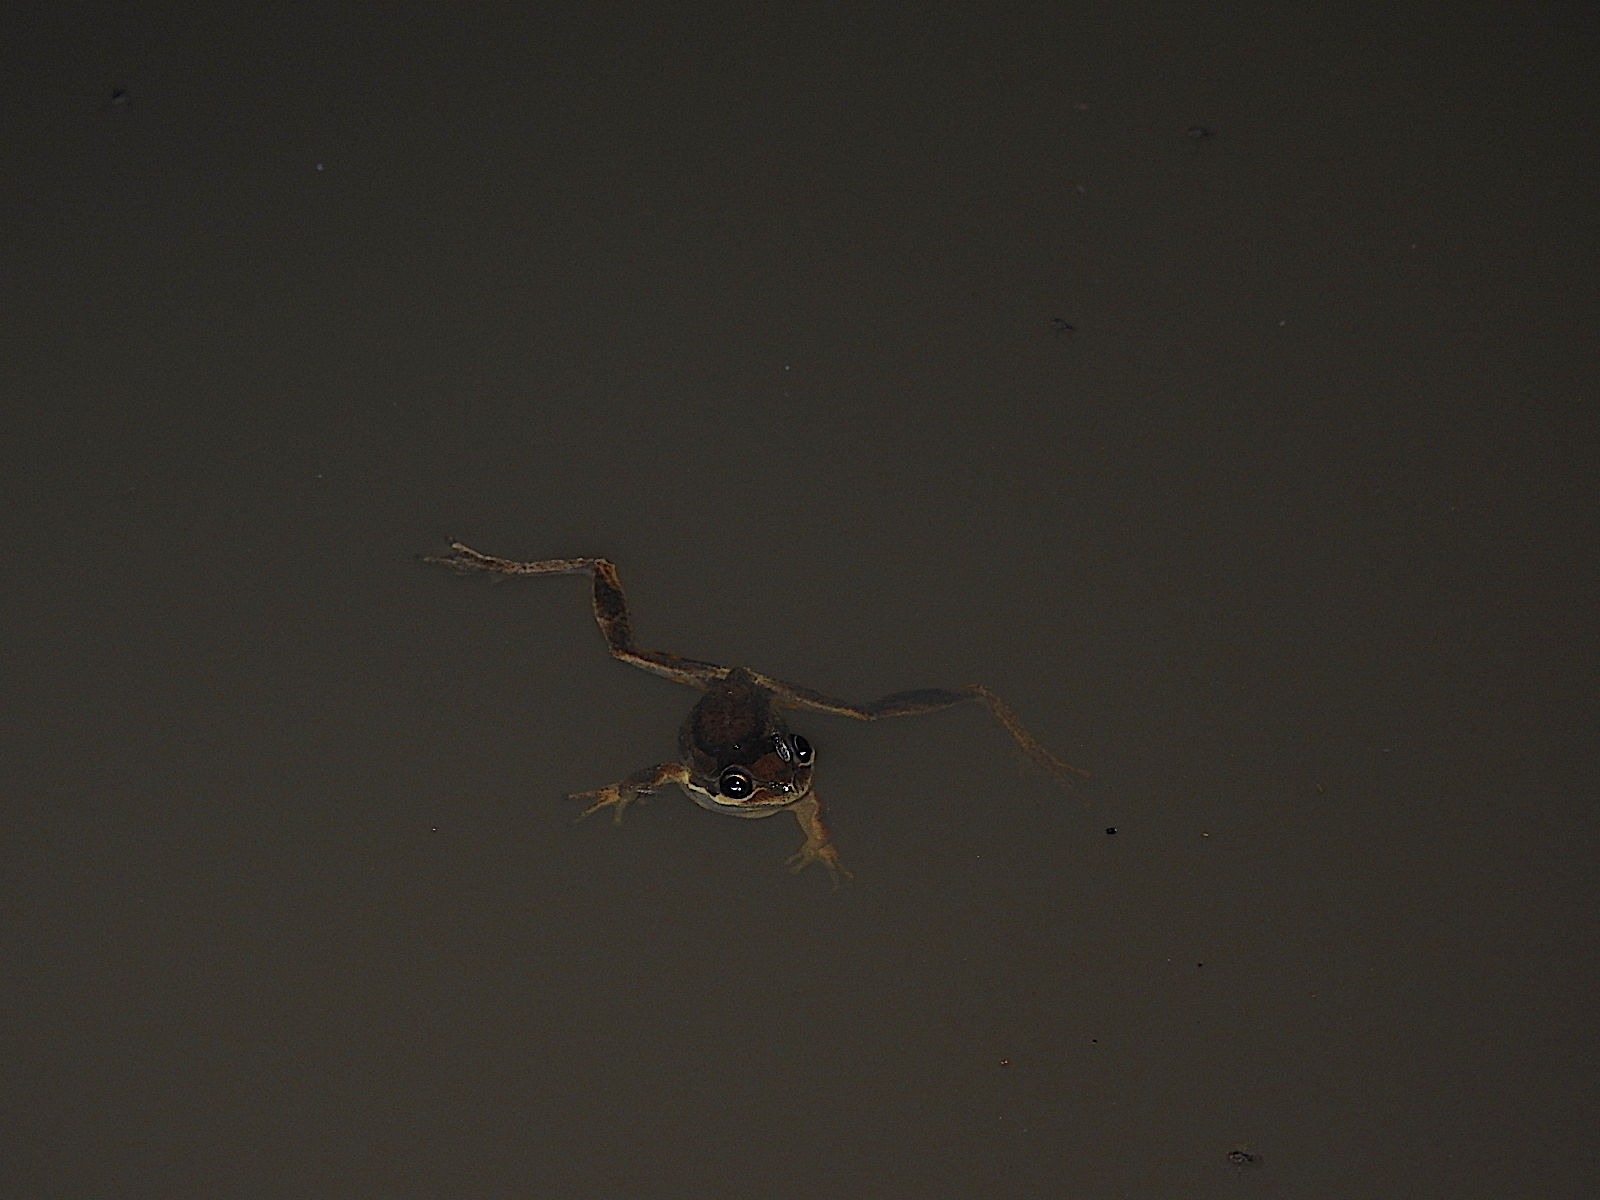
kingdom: Animalia
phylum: Chordata
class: Amphibia
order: Anura
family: Pelodryadidae
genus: Litoria
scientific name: Litoria ewingii
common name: Southern brown tree frog
